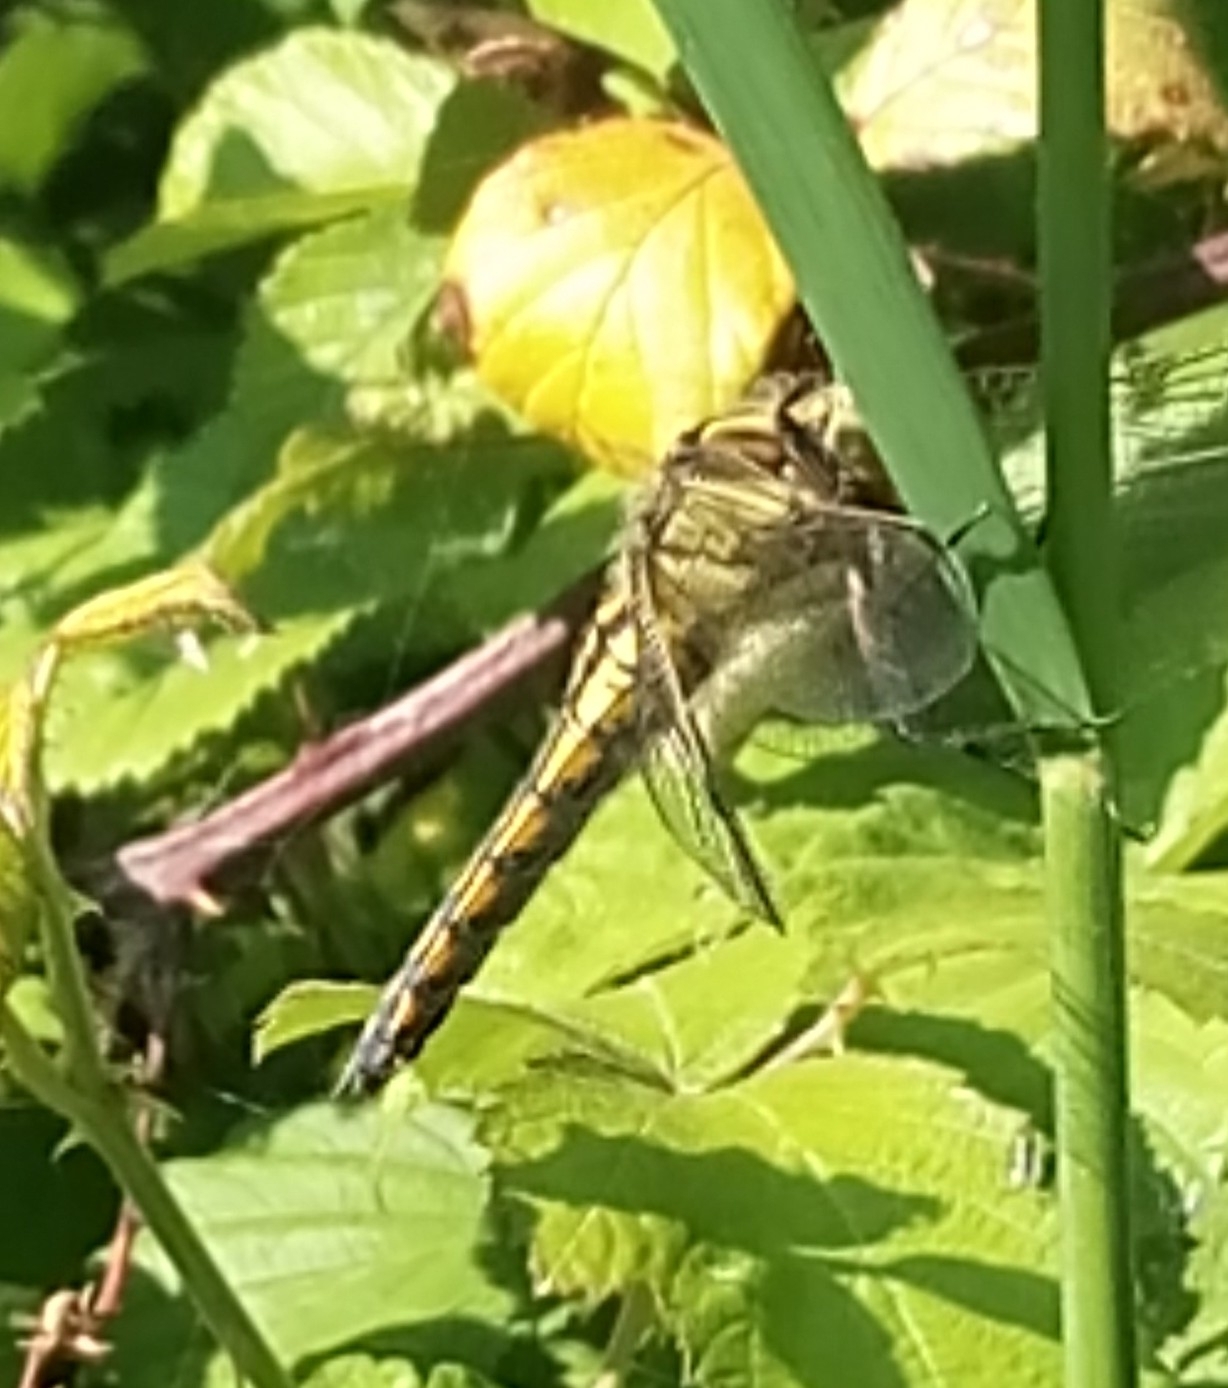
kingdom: Animalia
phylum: Arthropoda
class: Insecta
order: Odonata
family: Libellulidae
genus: Orthetrum
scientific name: Orthetrum cancellatum
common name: Black-tailed skimmer
